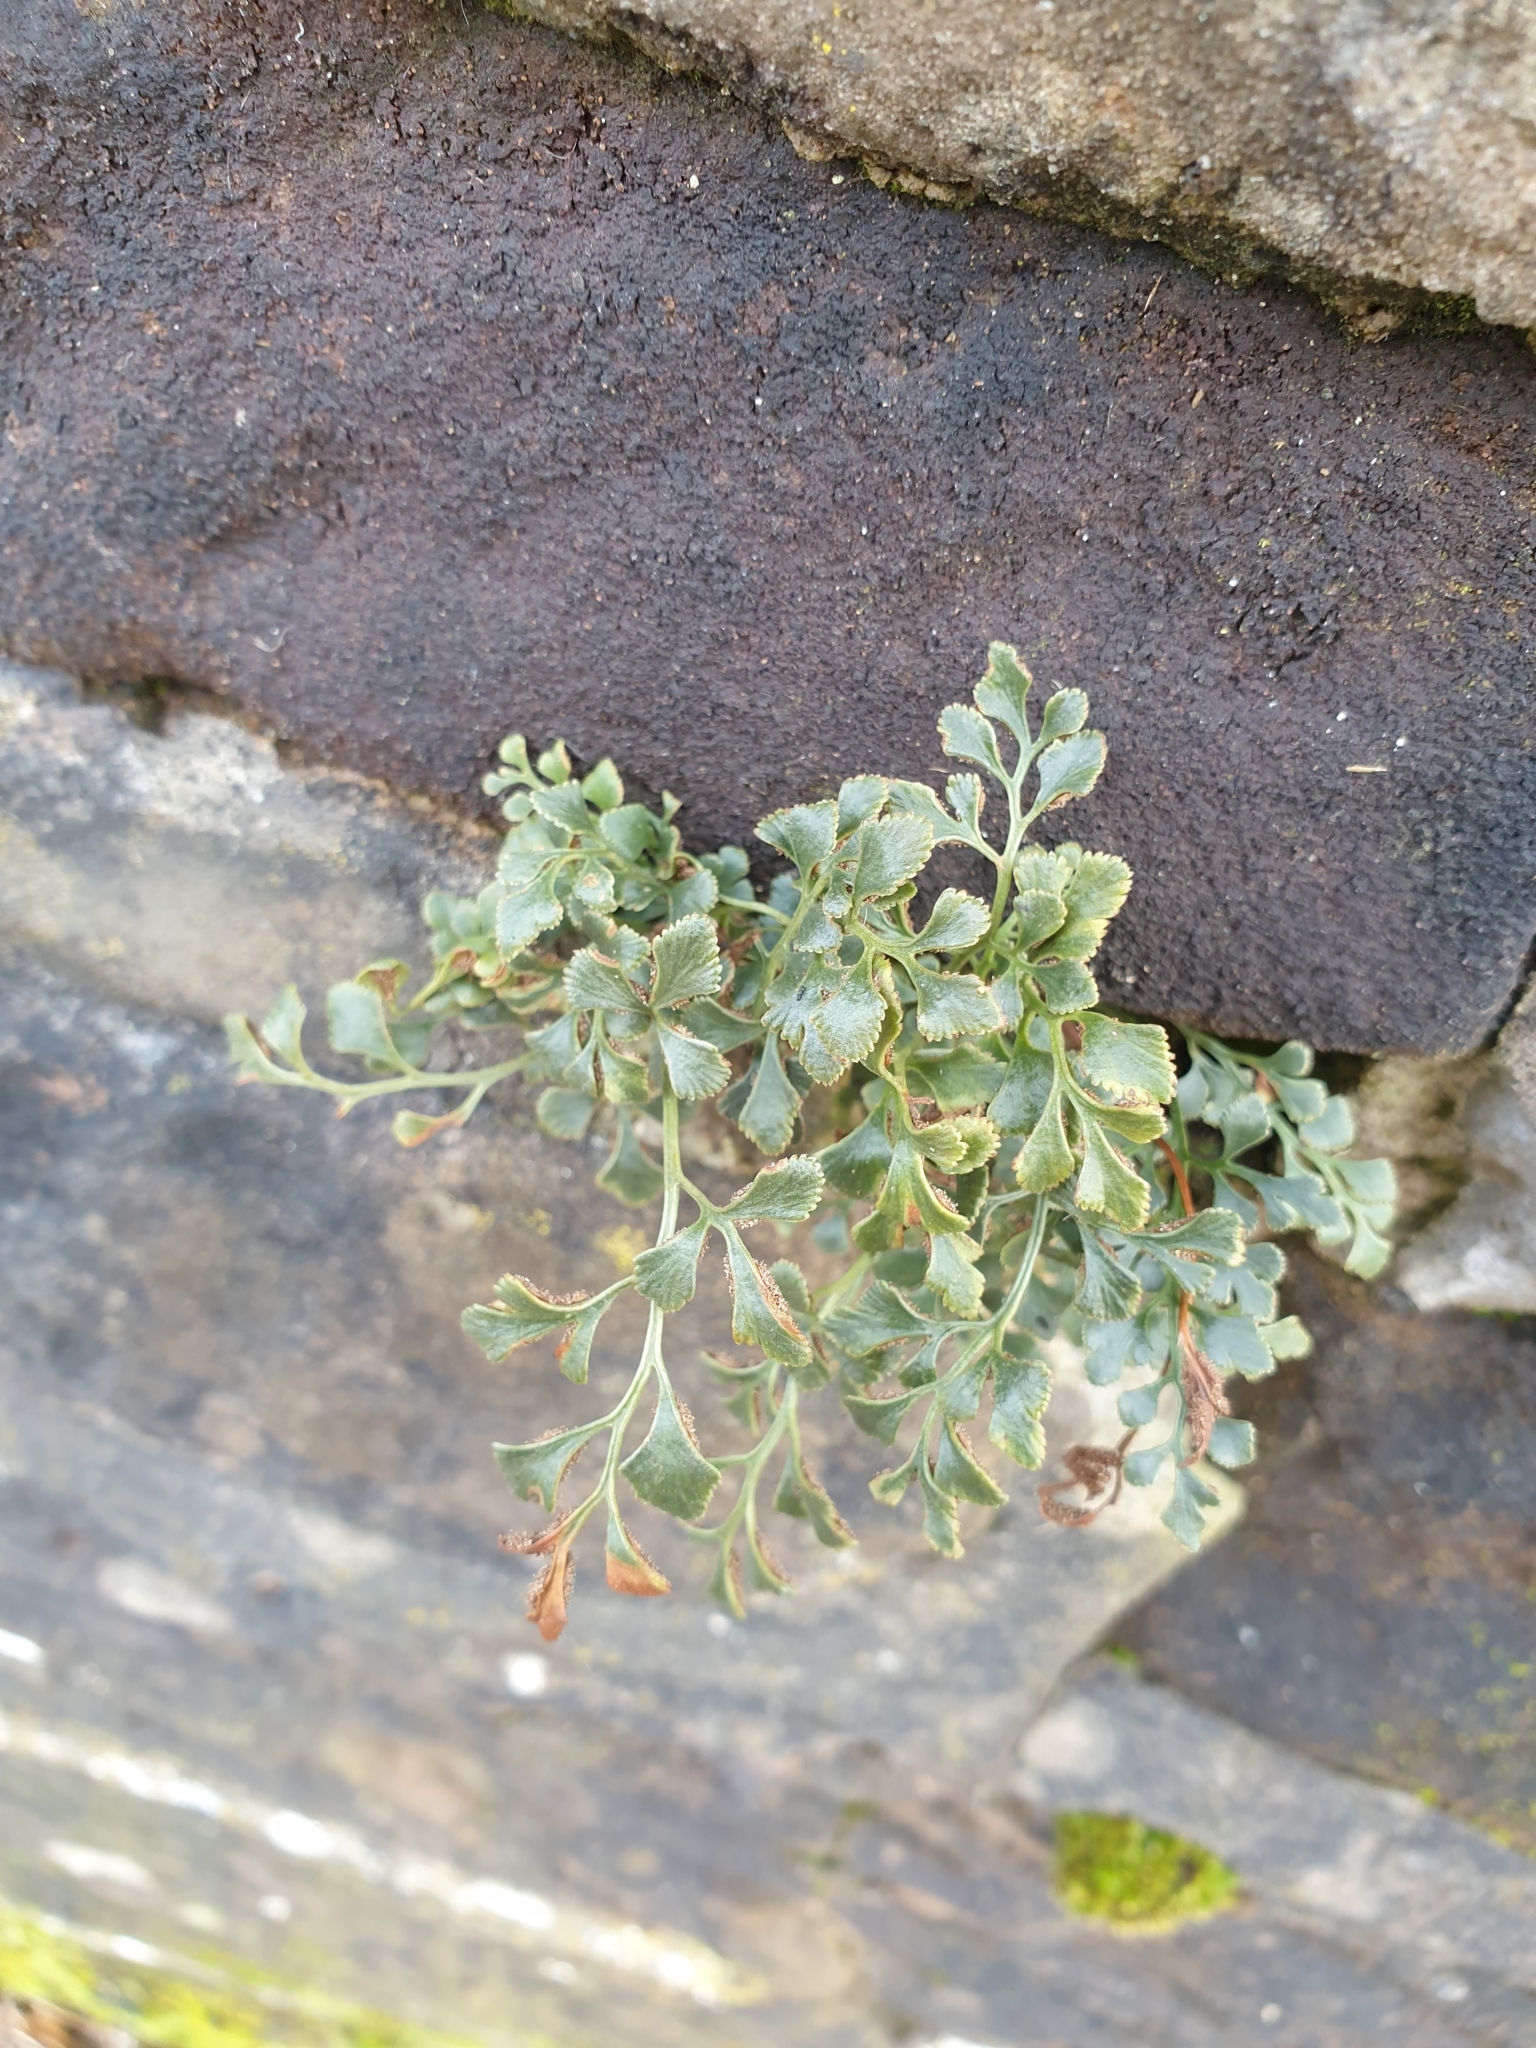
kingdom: Plantae
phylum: Tracheophyta
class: Polypodiopsida
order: Polypodiales
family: Aspleniaceae
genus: Asplenium
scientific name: Asplenium ruta-muraria
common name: Wall-rue
